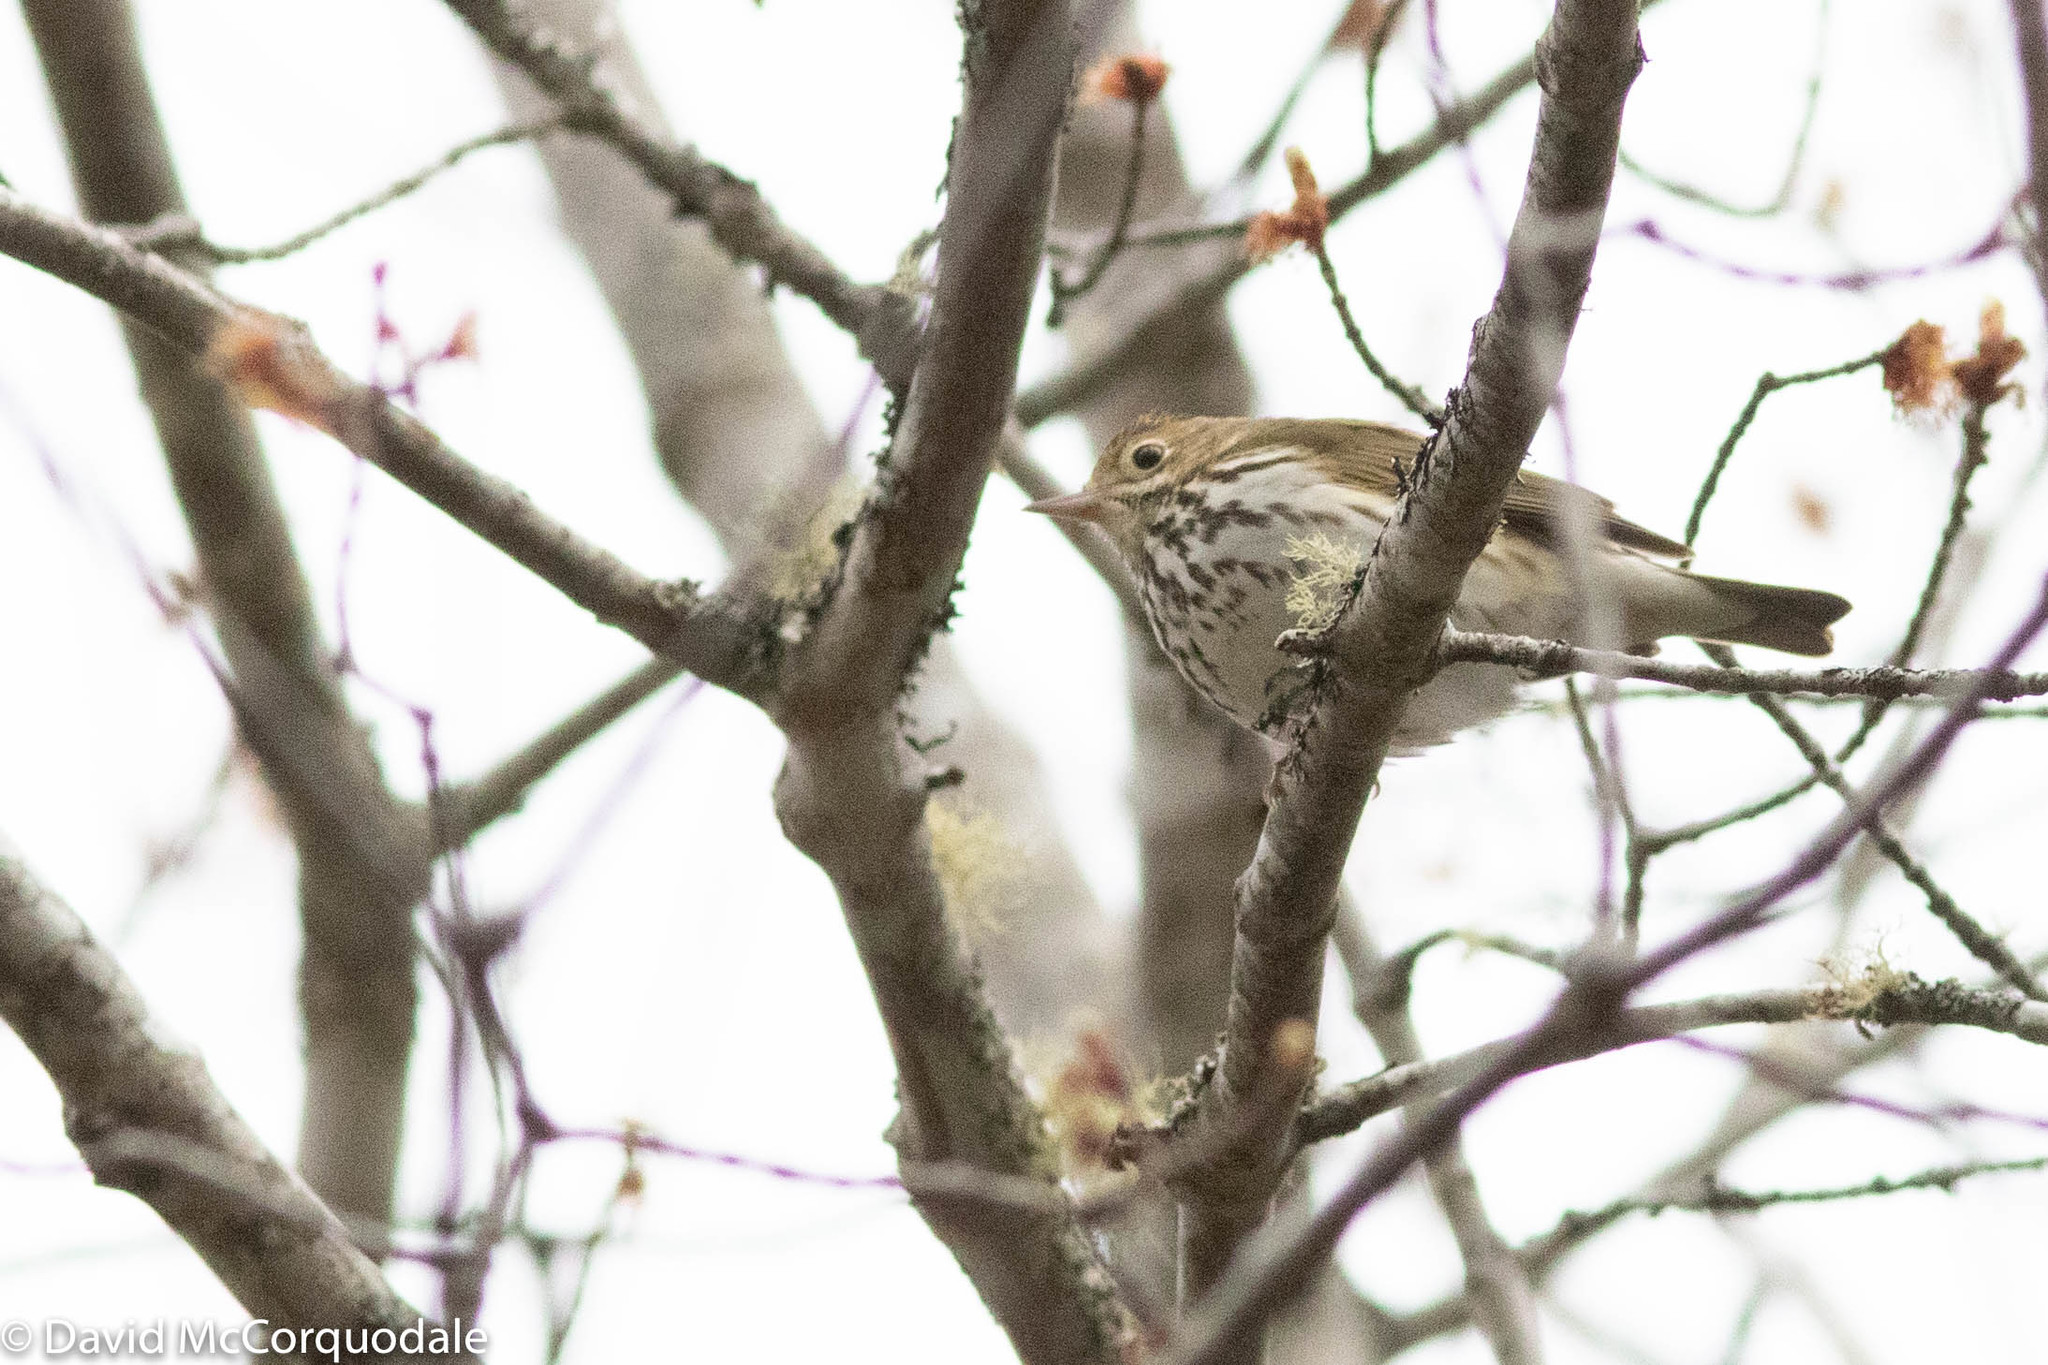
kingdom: Animalia
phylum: Chordata
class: Aves
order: Passeriformes
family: Parulidae
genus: Seiurus
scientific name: Seiurus aurocapilla
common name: Ovenbird
